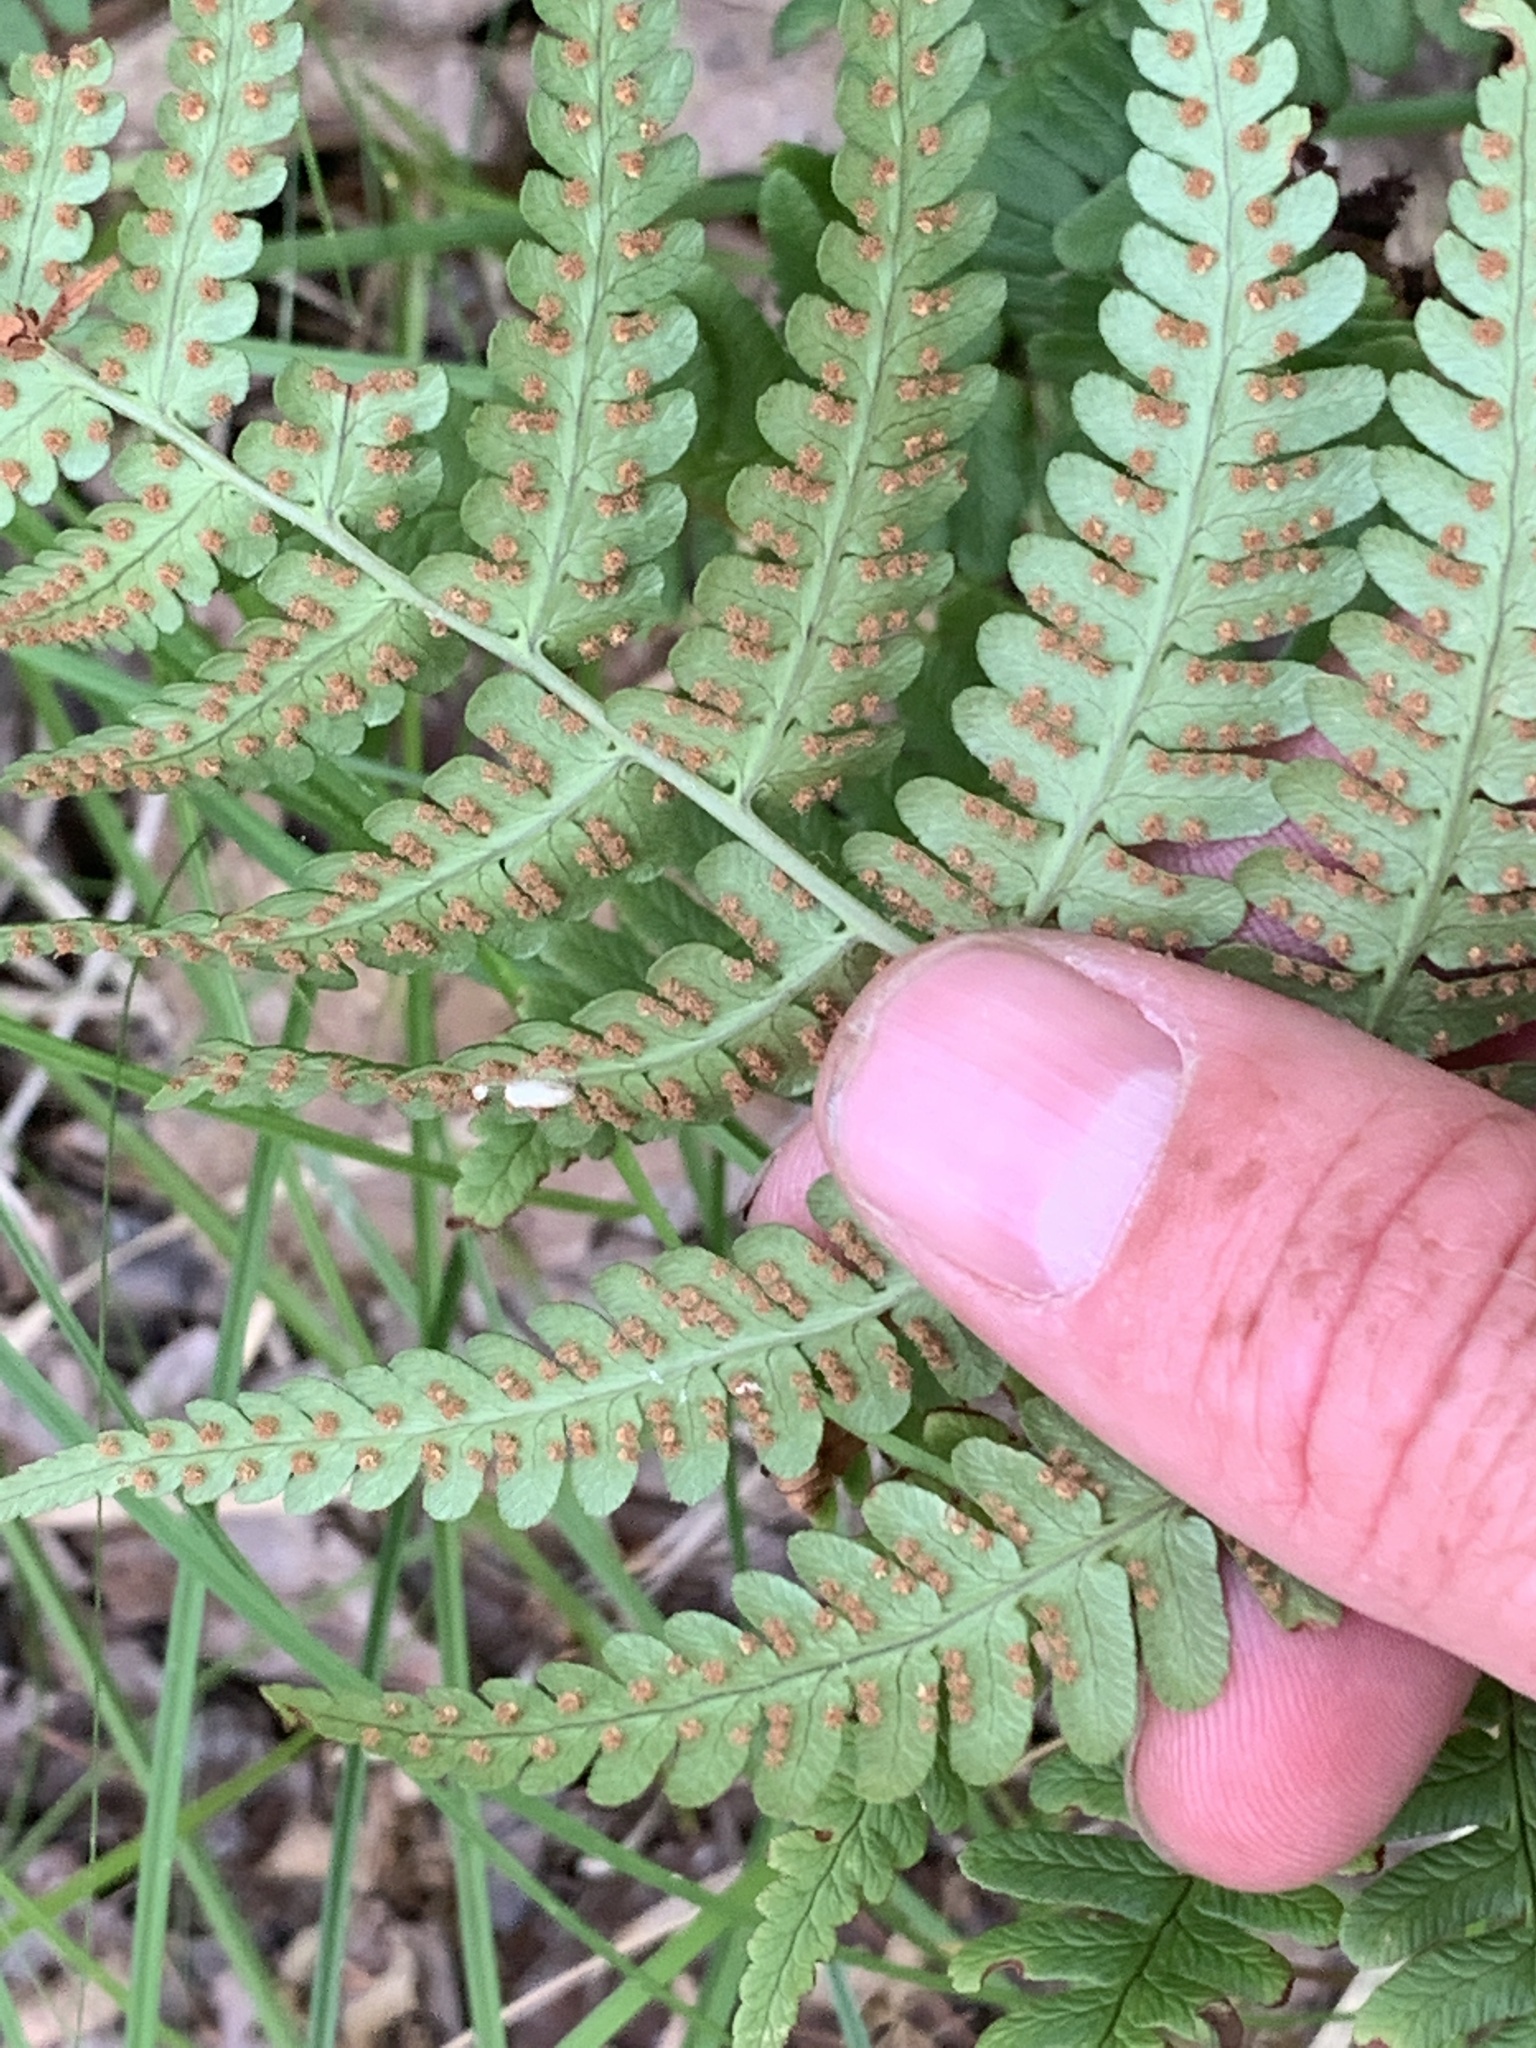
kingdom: Plantae
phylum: Tracheophyta
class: Polypodiopsida
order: Polypodiales
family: Dryopteridaceae
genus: Dryopteris
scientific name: Dryopteris marginalis
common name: Marginal wood fern
